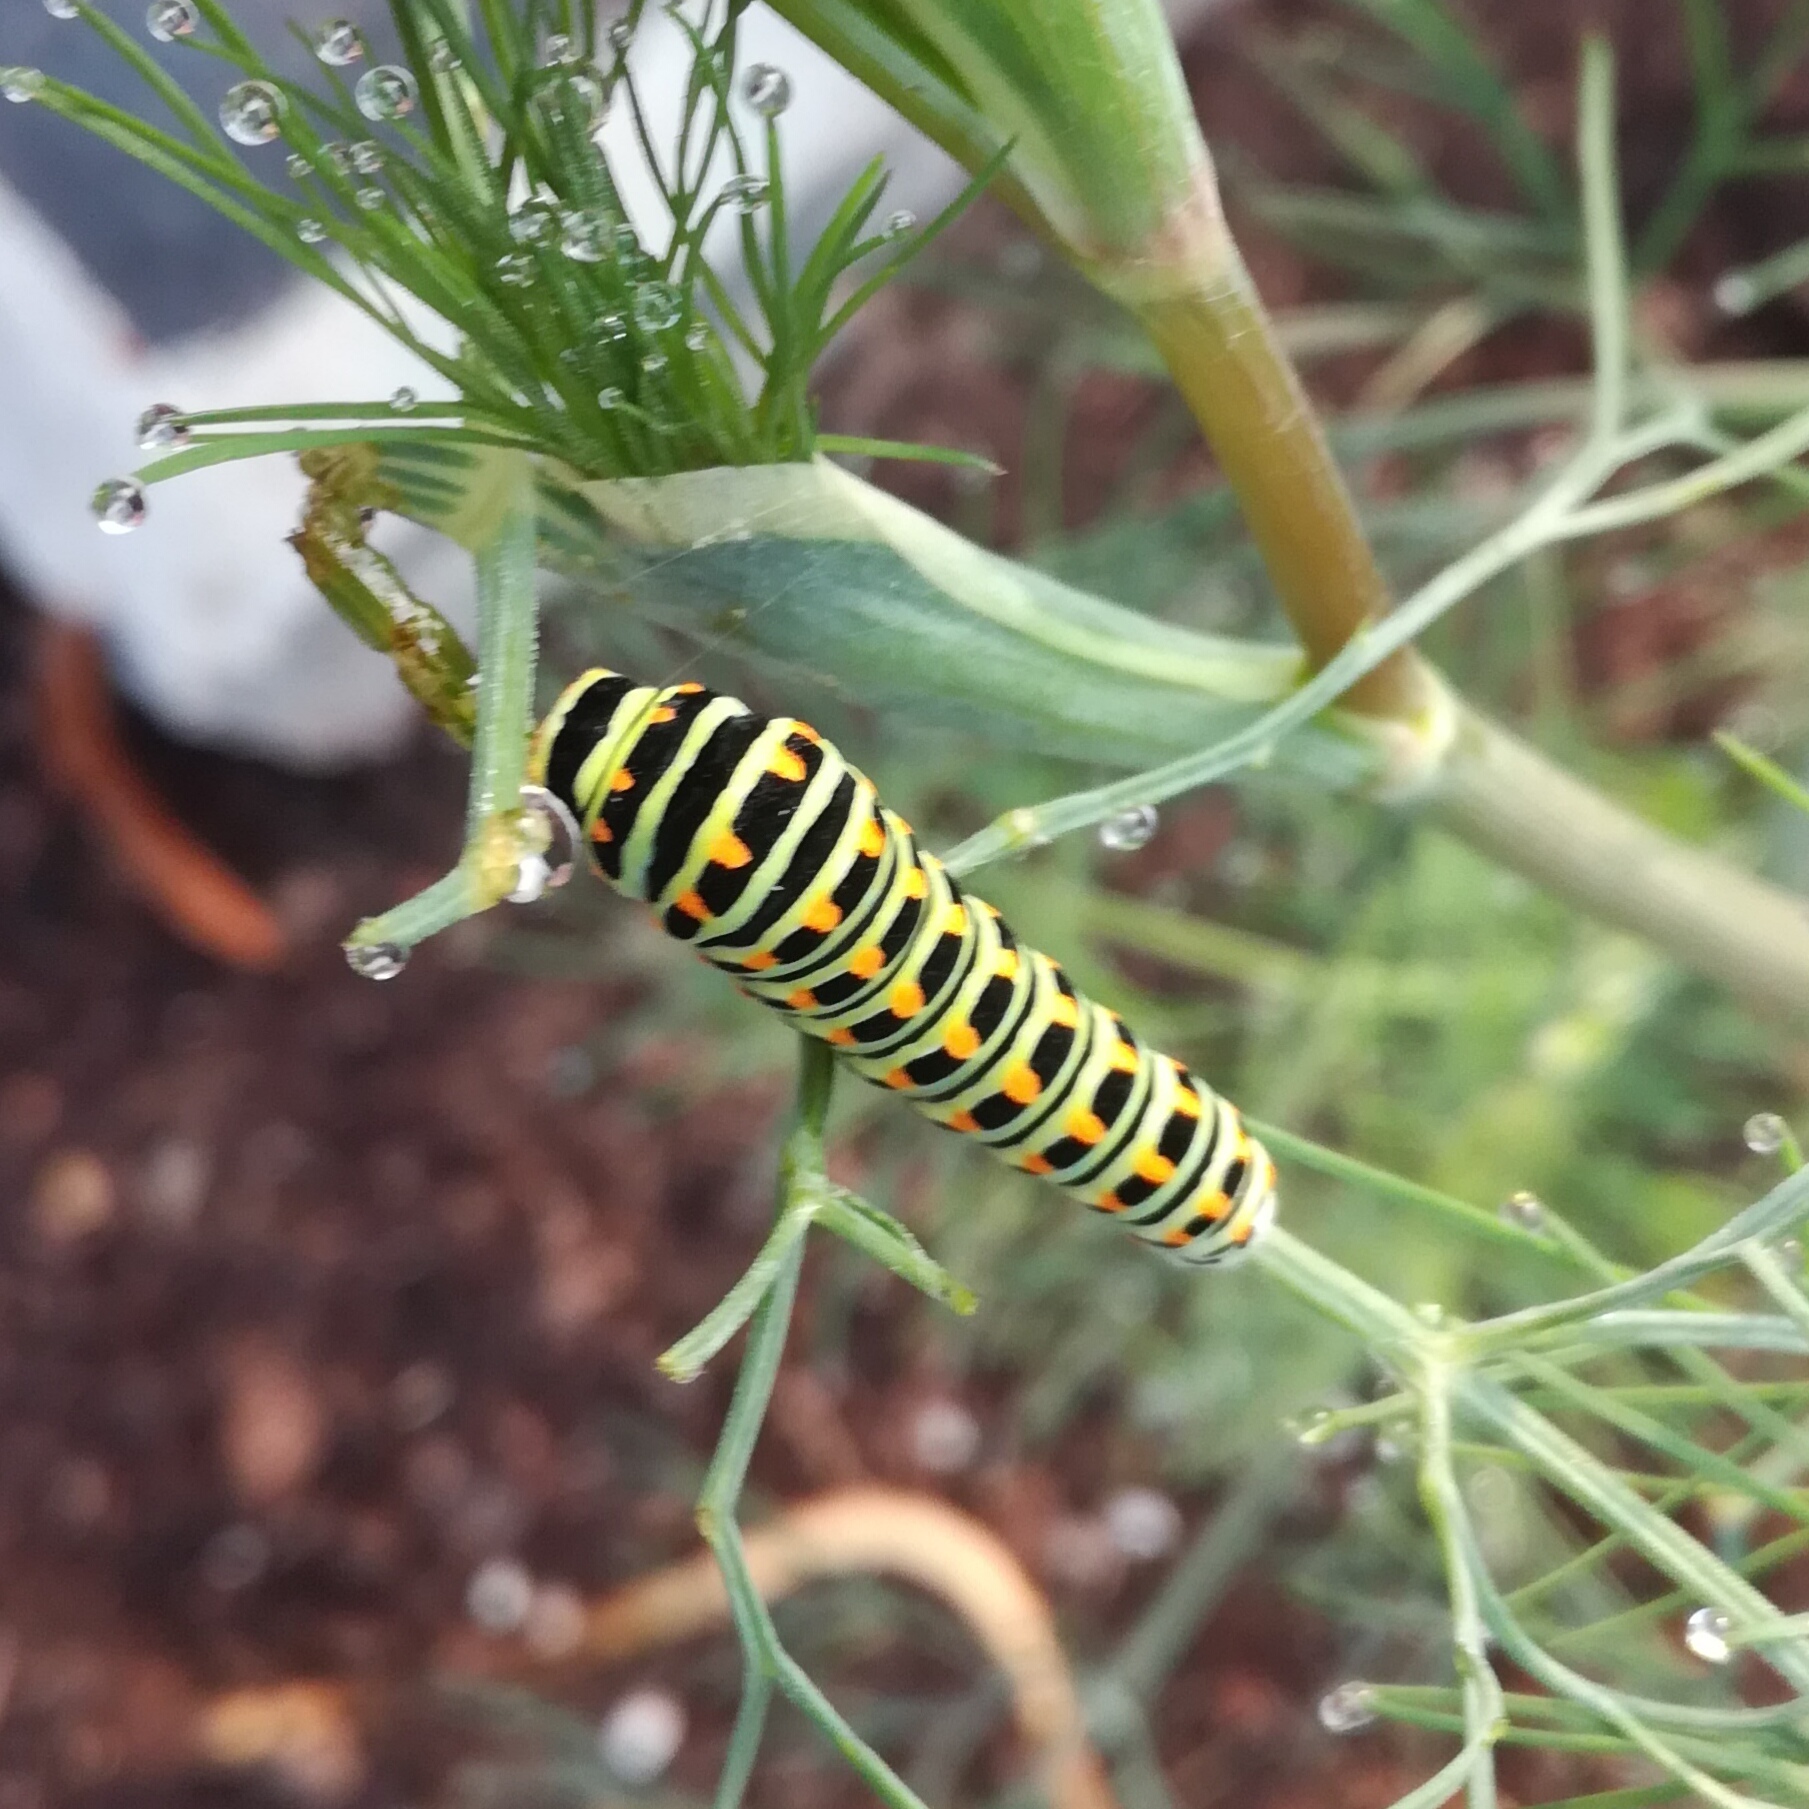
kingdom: Animalia
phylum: Arthropoda
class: Insecta
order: Lepidoptera
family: Papilionidae
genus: Papilio
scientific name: Papilio machaon
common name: Swallowtail
